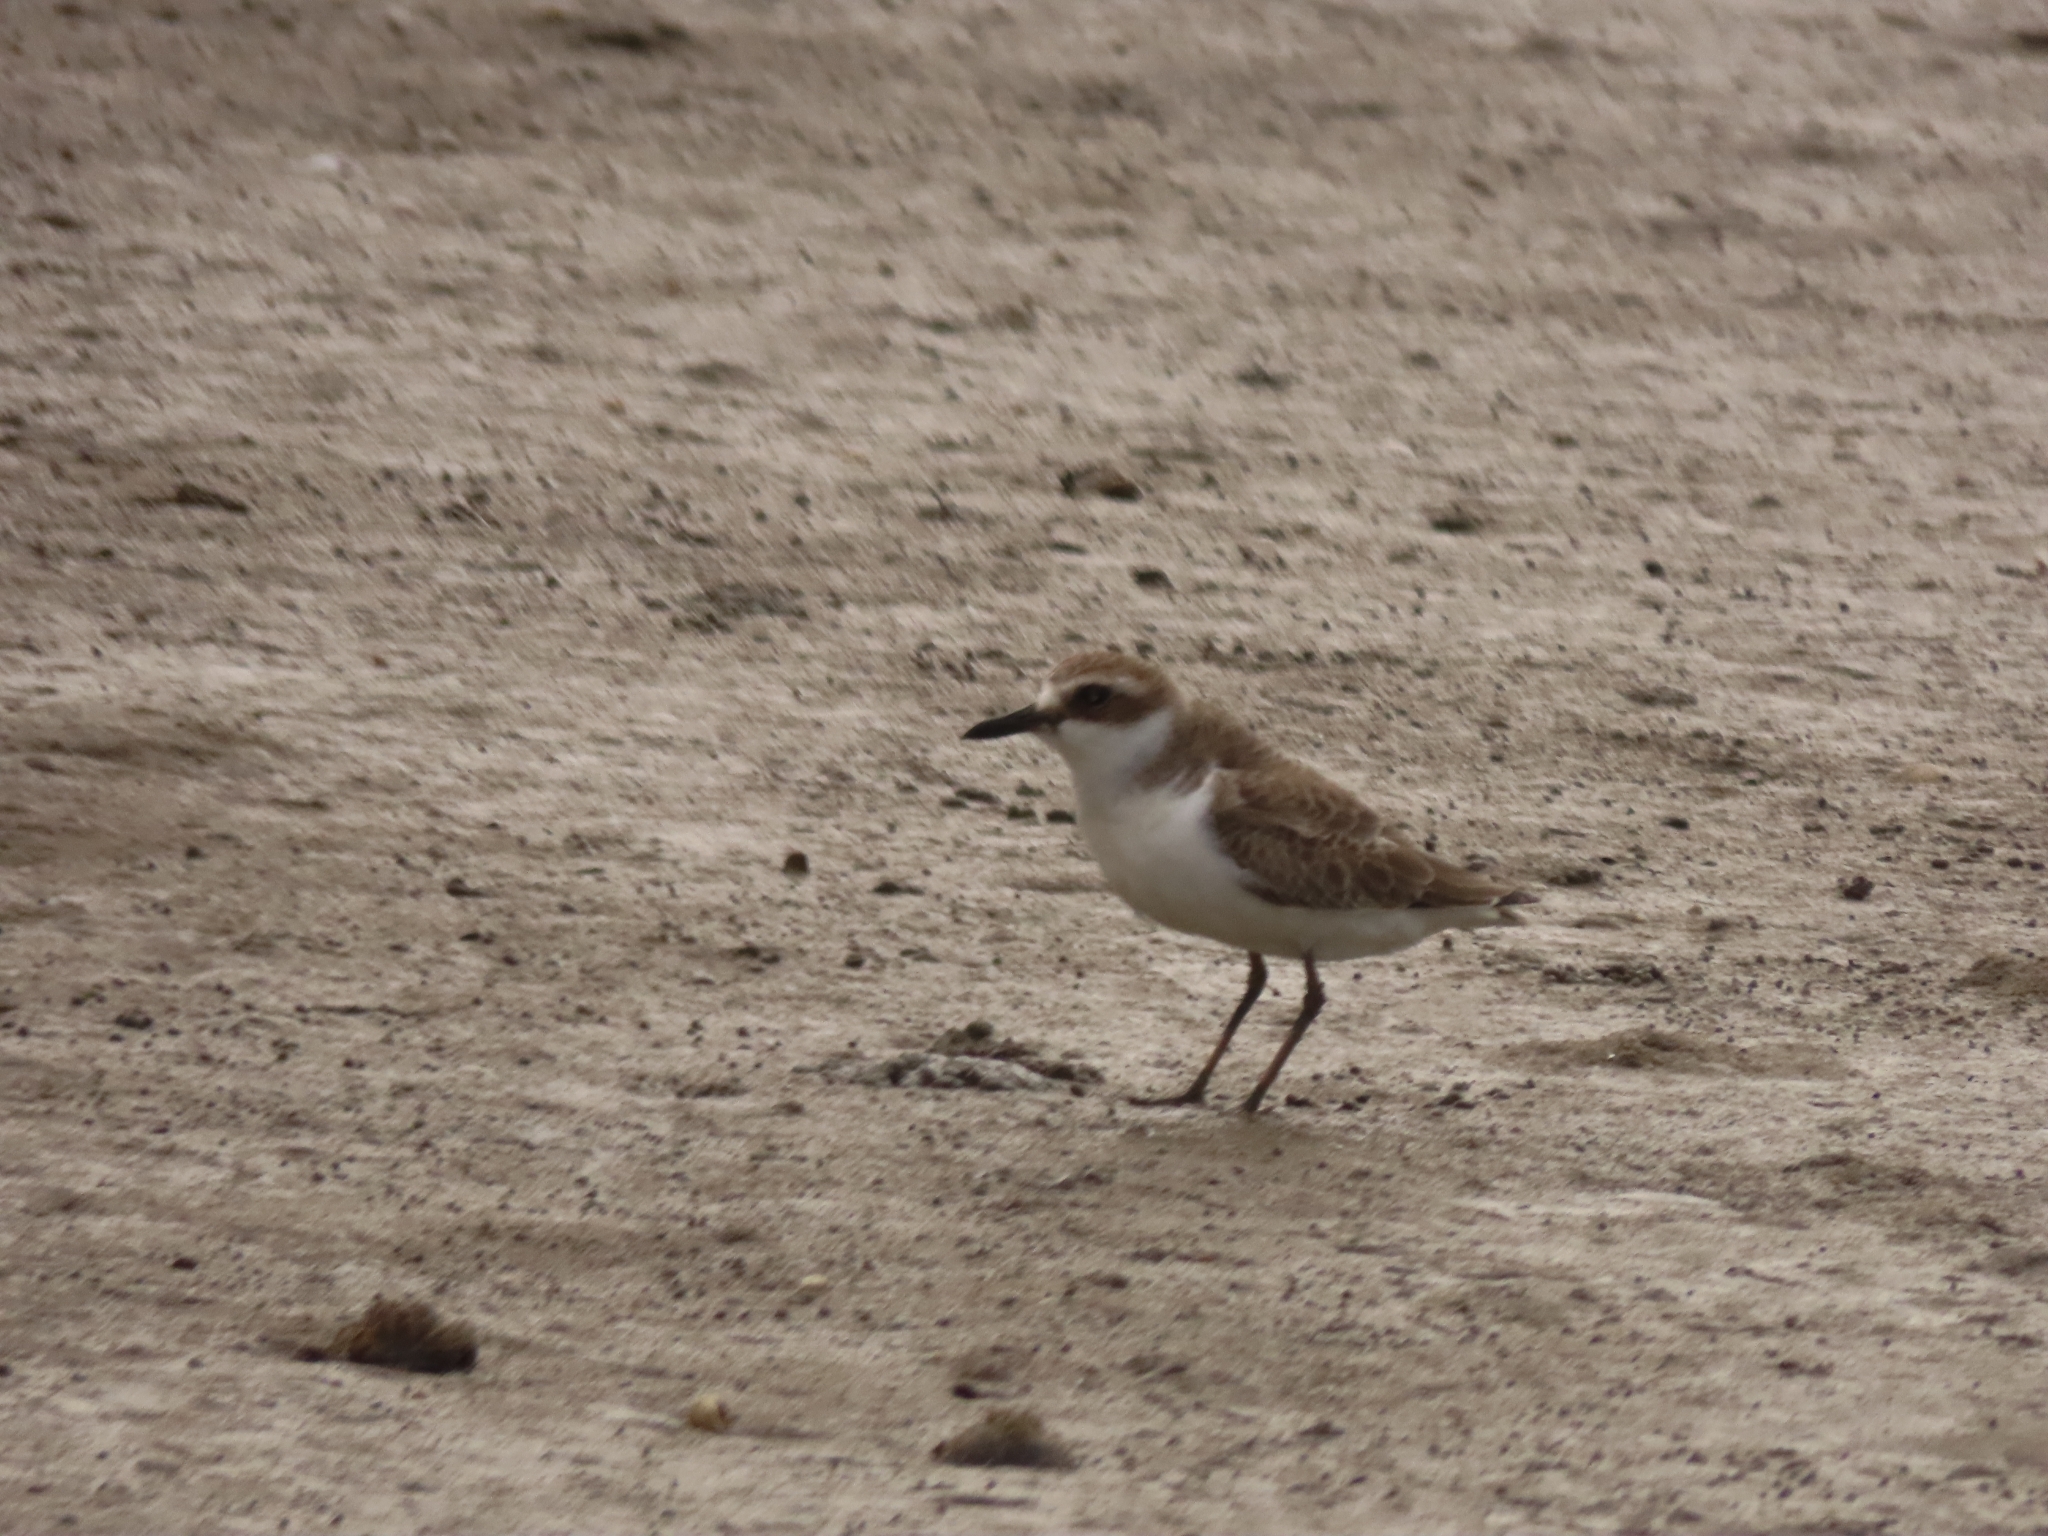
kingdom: Animalia
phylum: Chordata
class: Aves
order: Charadriiformes
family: Charadriidae
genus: Charadrius
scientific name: Charadrius alexandrinus
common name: Kentish plover
